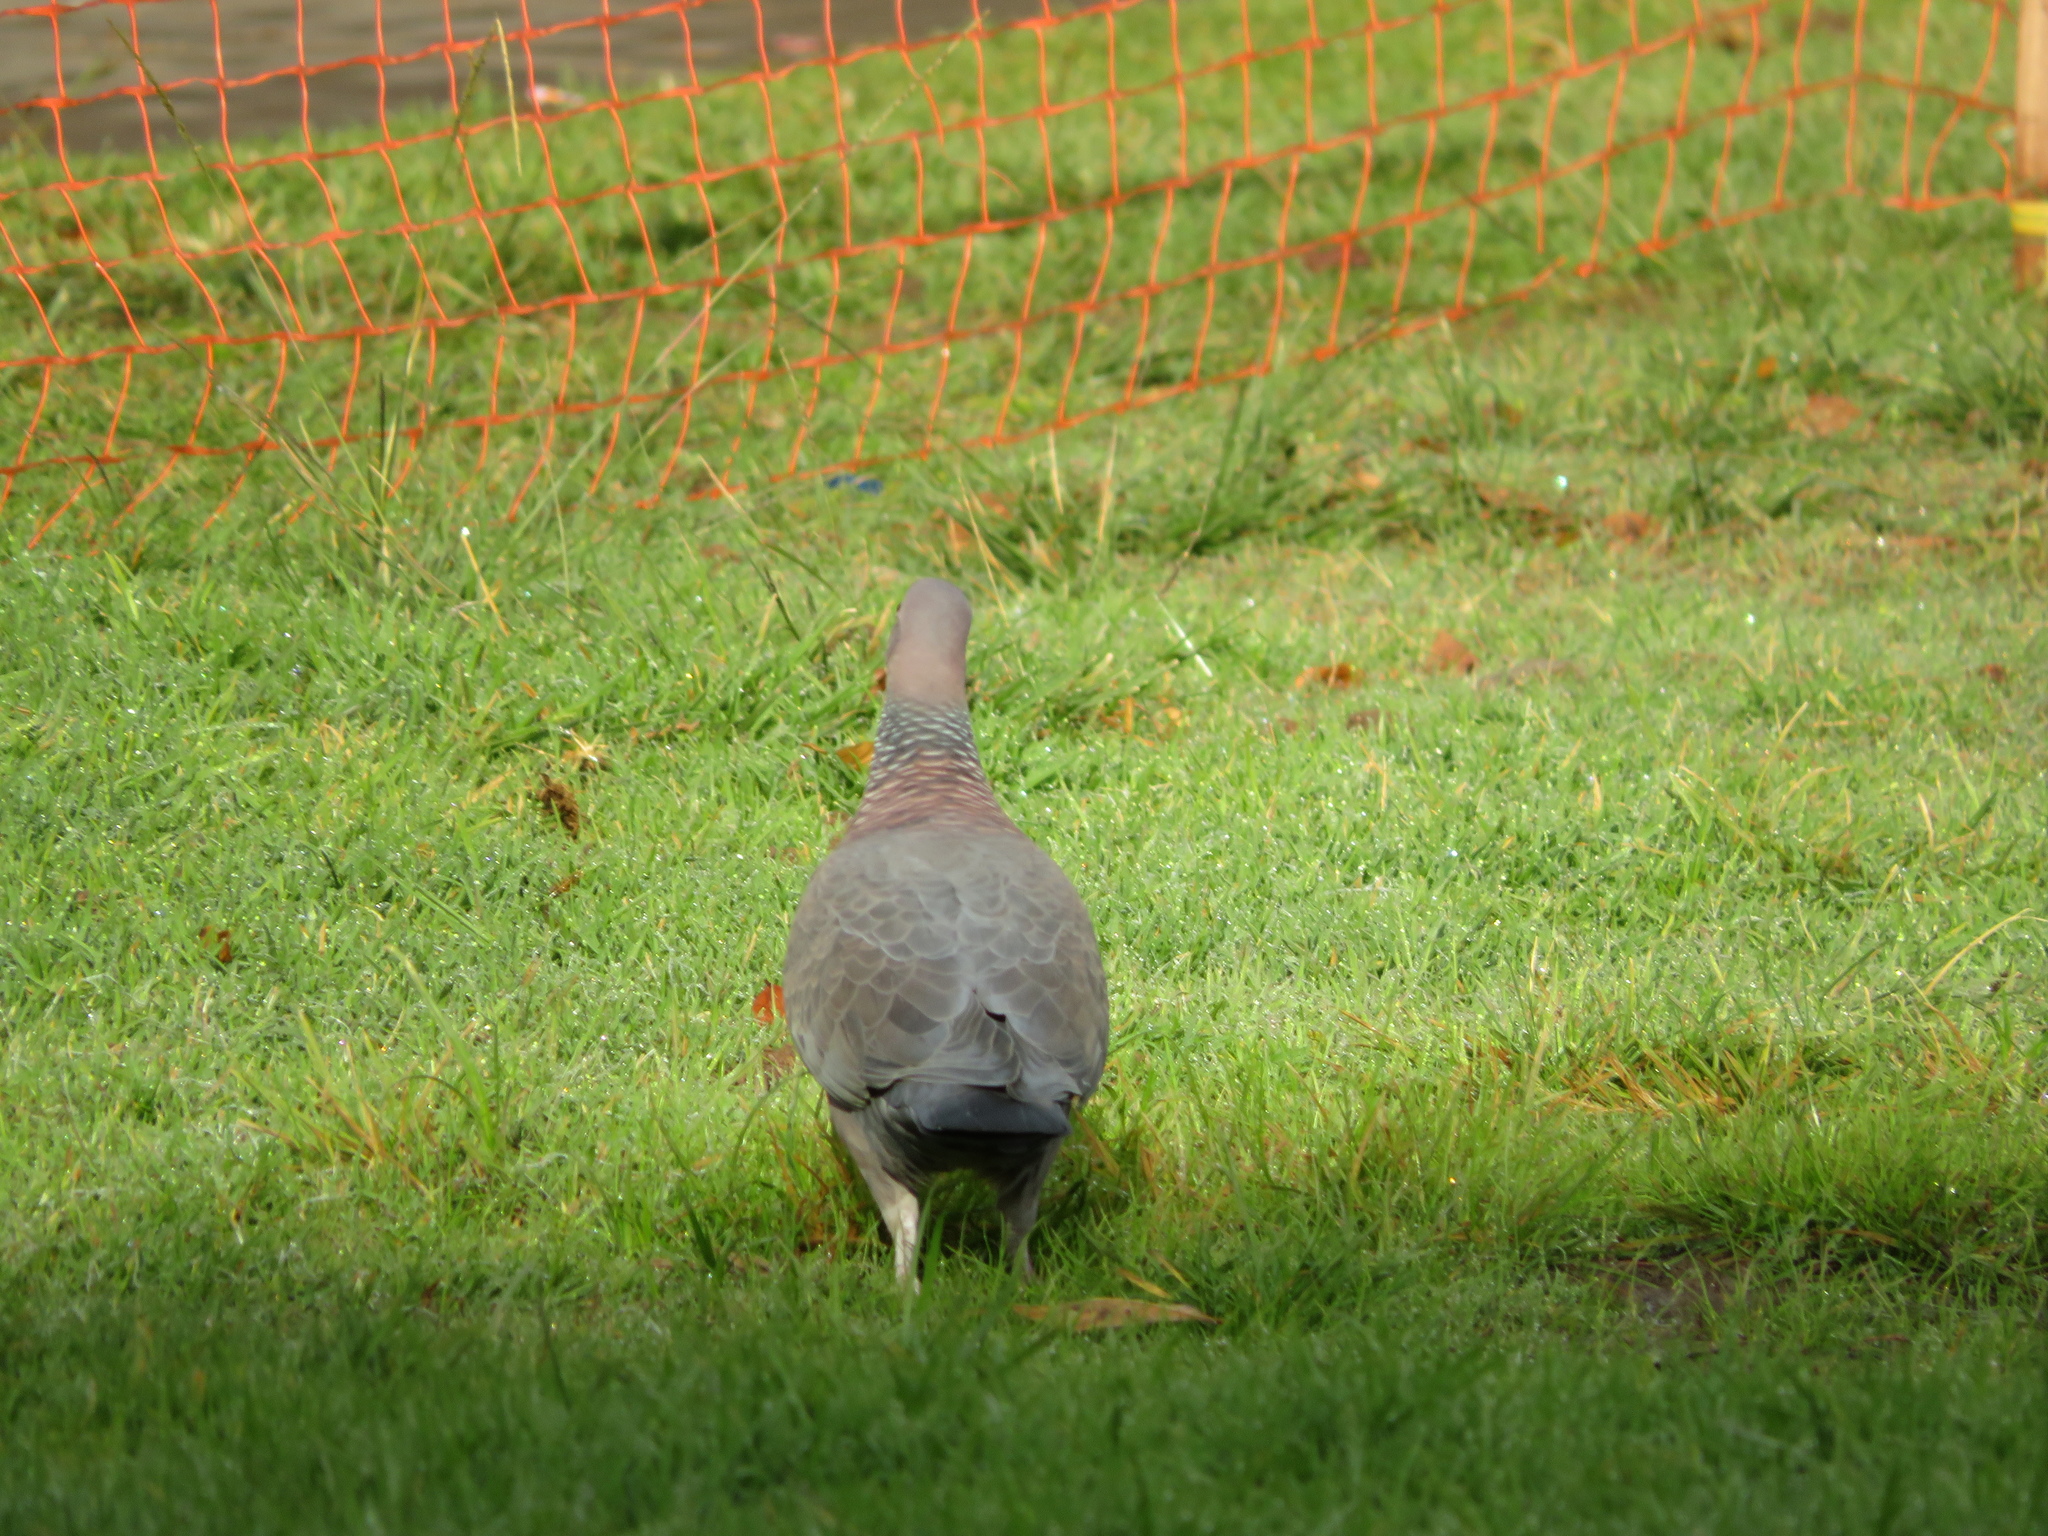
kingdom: Animalia
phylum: Chordata
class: Aves
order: Columbiformes
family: Columbidae
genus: Patagioenas
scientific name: Patagioenas picazuro
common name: Picazuro pigeon
